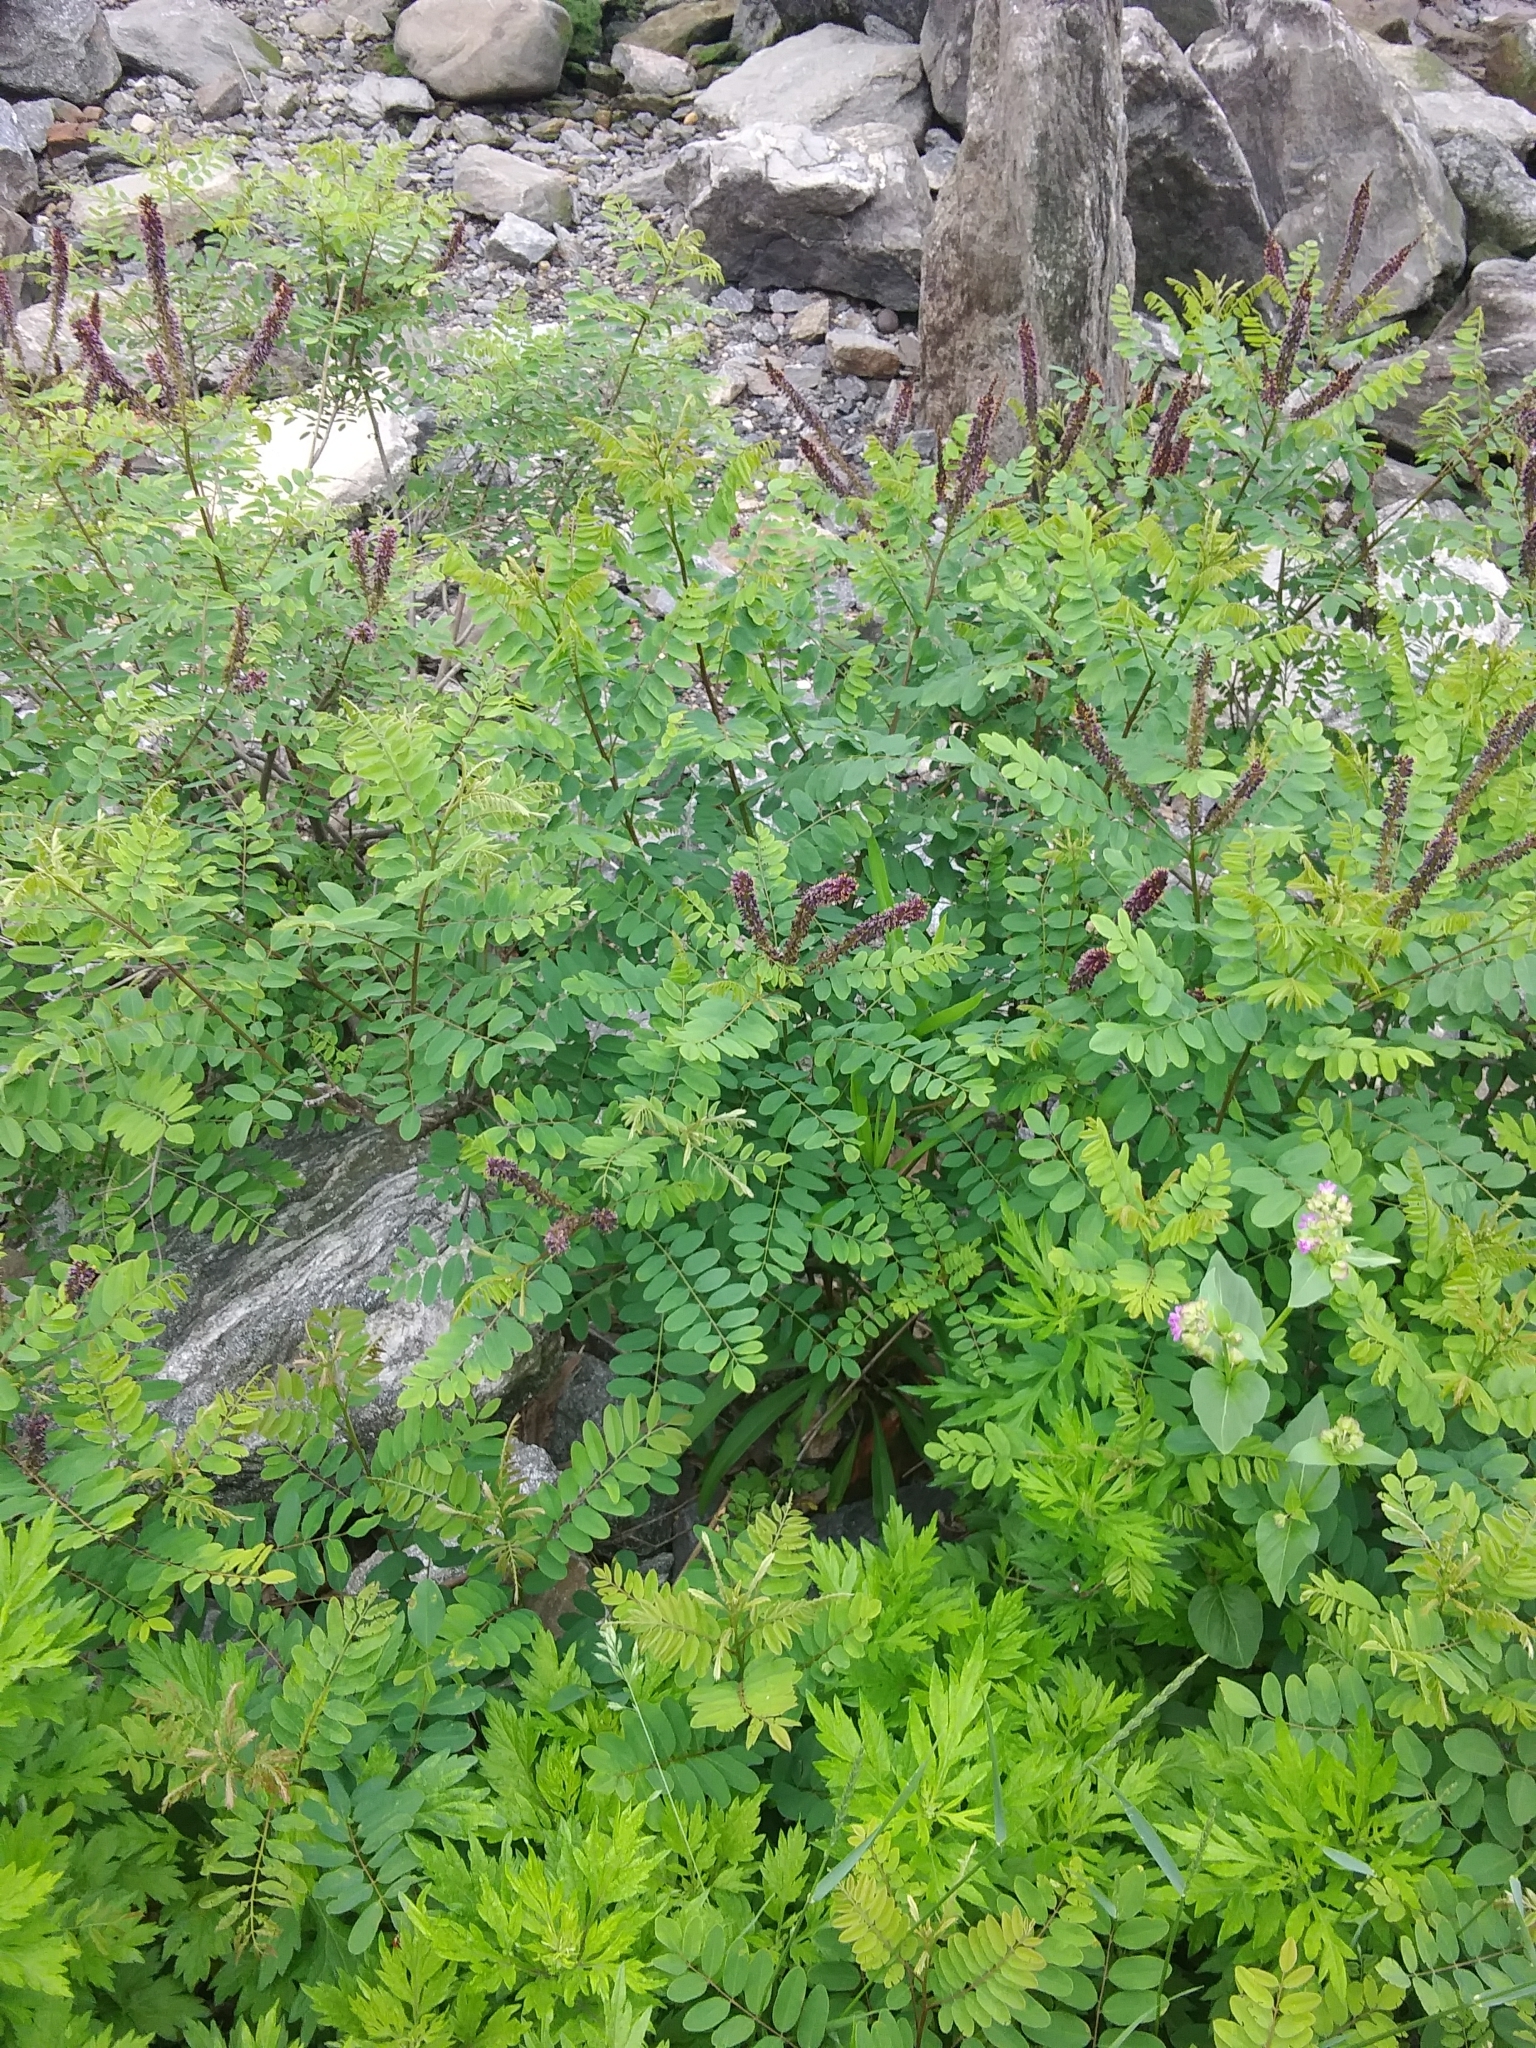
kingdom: Plantae
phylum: Tracheophyta
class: Magnoliopsida
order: Fabales
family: Fabaceae
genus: Amorpha
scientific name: Amorpha fruticosa
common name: False indigo
